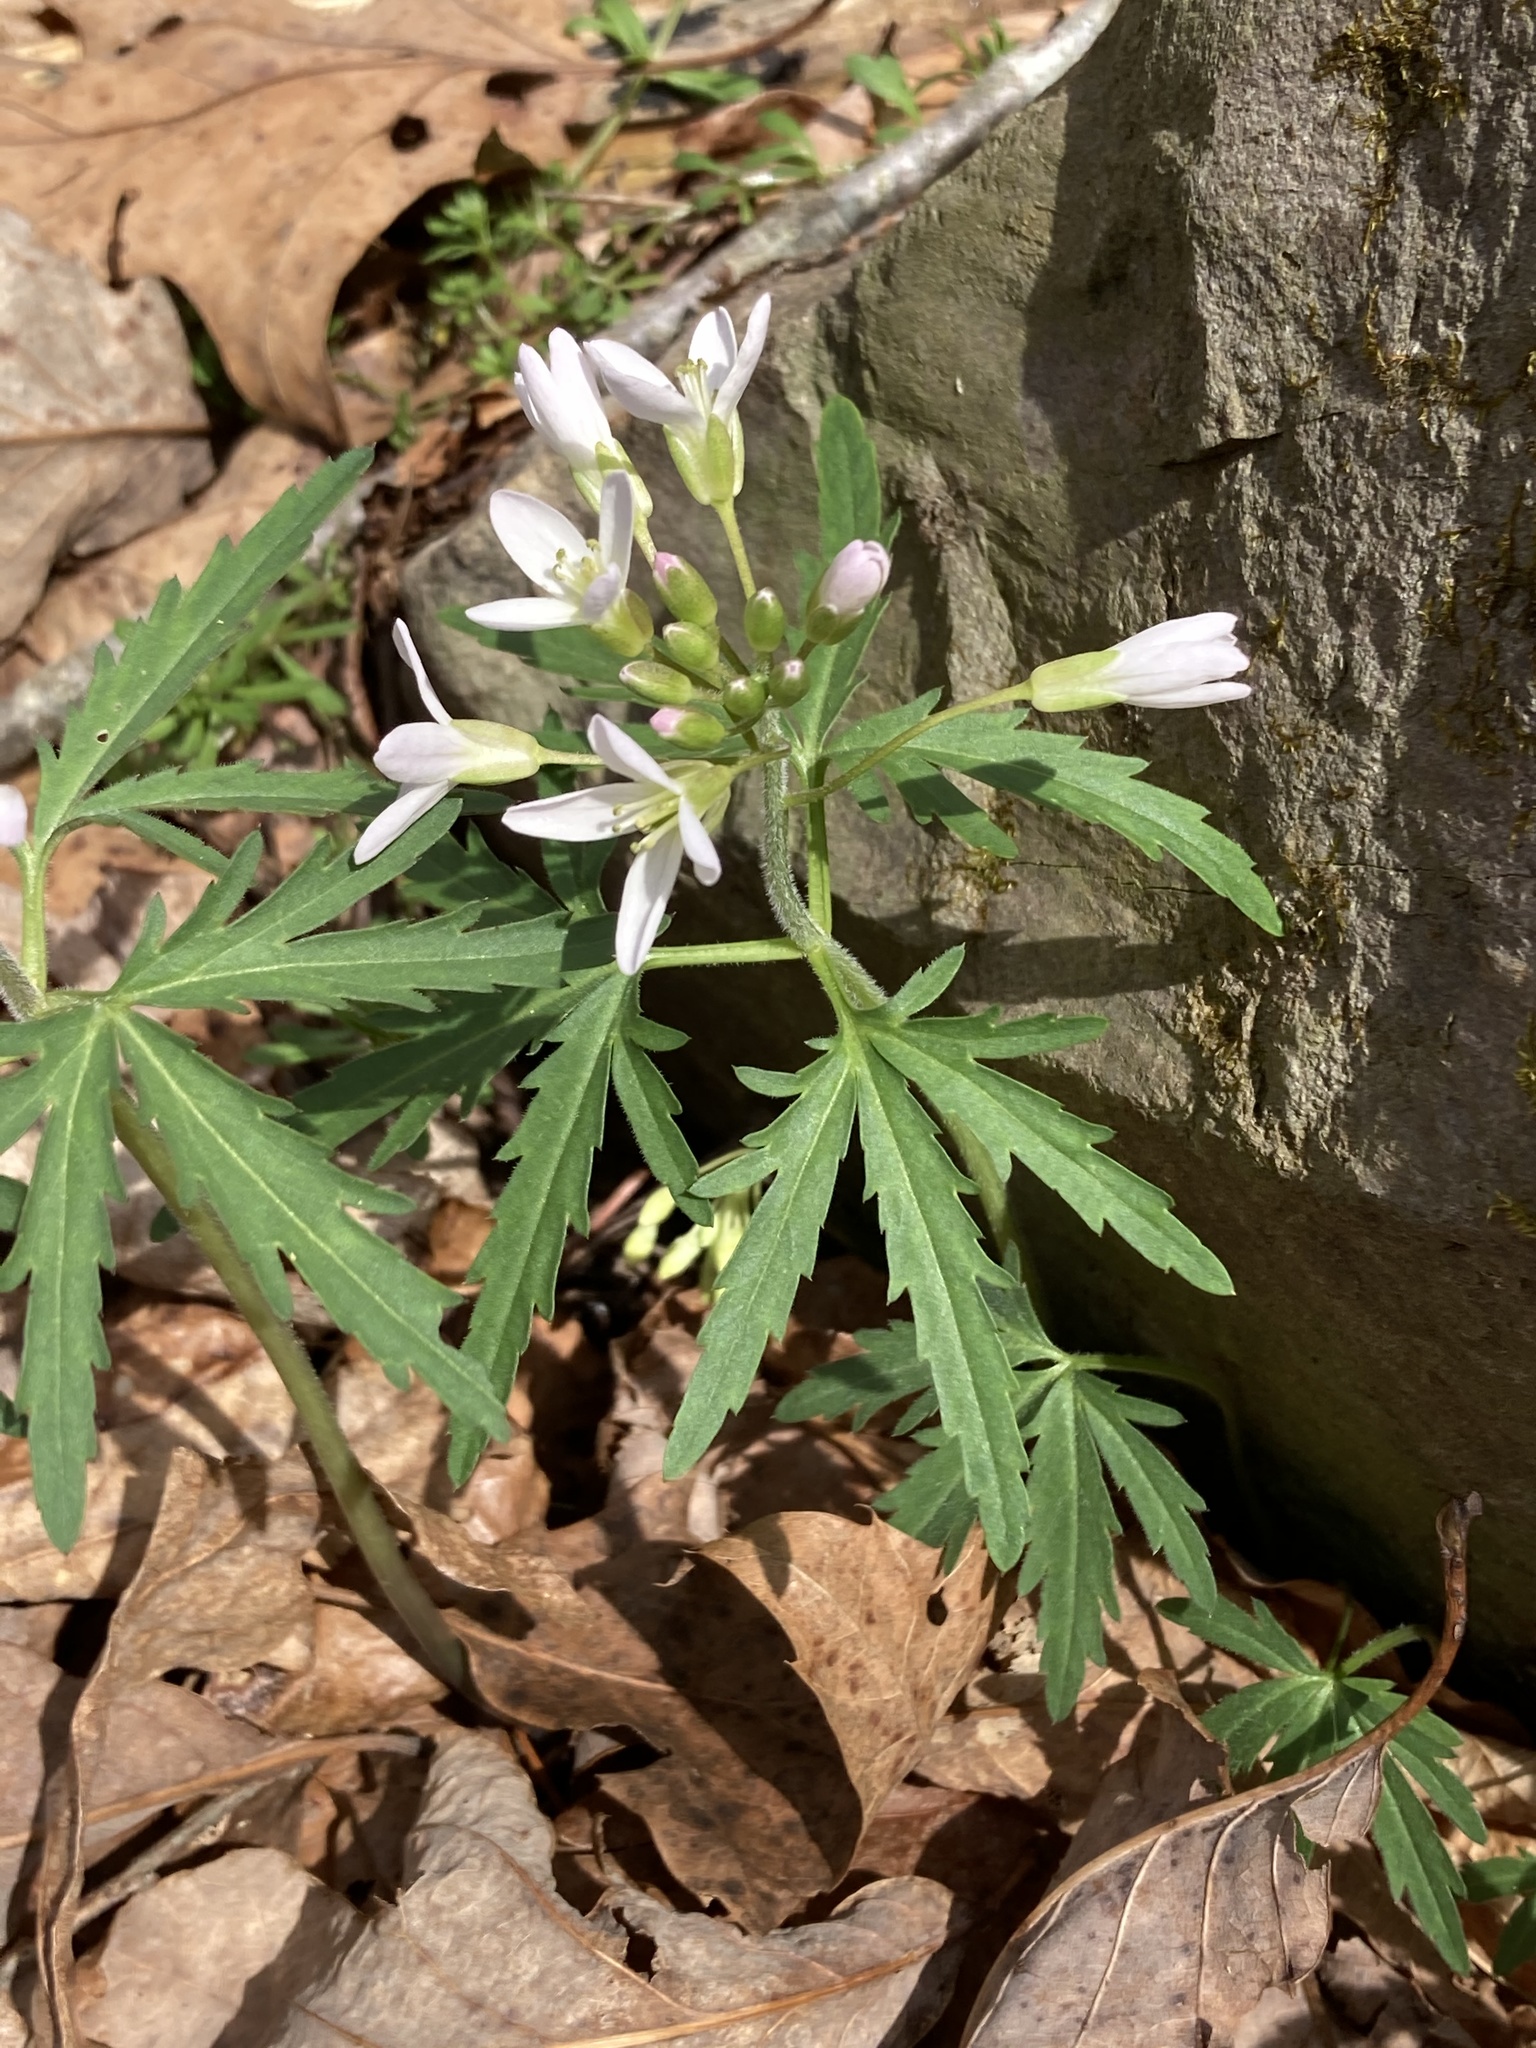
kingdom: Plantae
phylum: Tracheophyta
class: Magnoliopsida
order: Brassicales
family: Brassicaceae
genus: Cardamine
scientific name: Cardamine concatenata
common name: Cut-leaf toothcup
